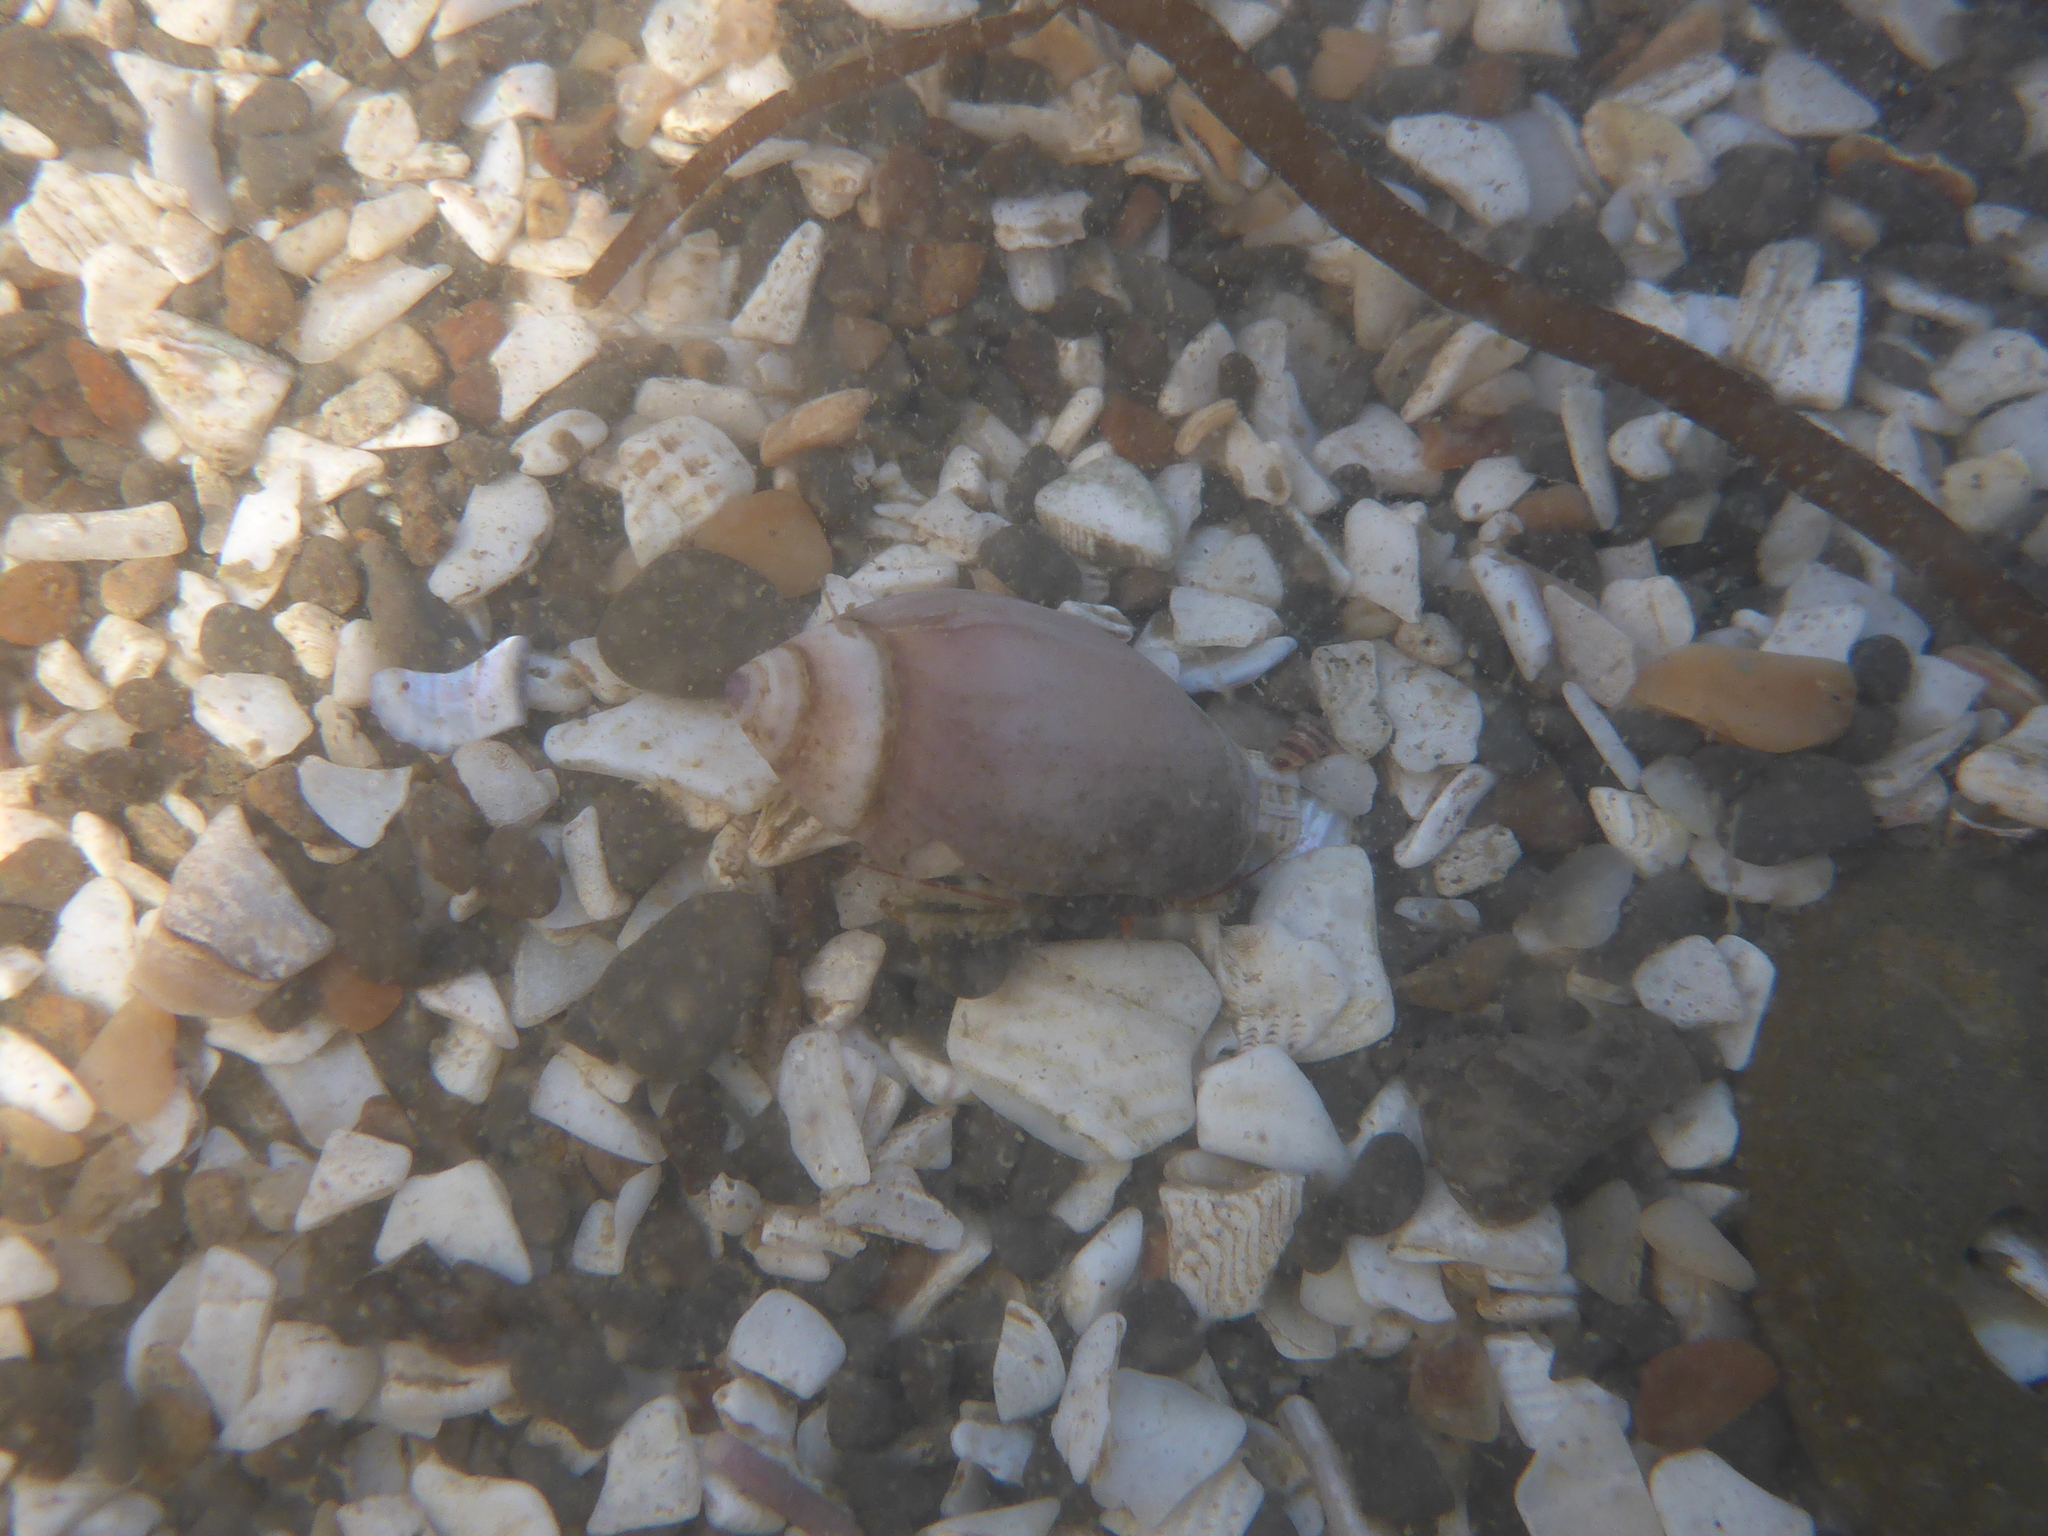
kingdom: Animalia
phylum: Mollusca
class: Gastropoda
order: Neogastropoda
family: Olividae
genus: Callianax
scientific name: Callianax biplicata
